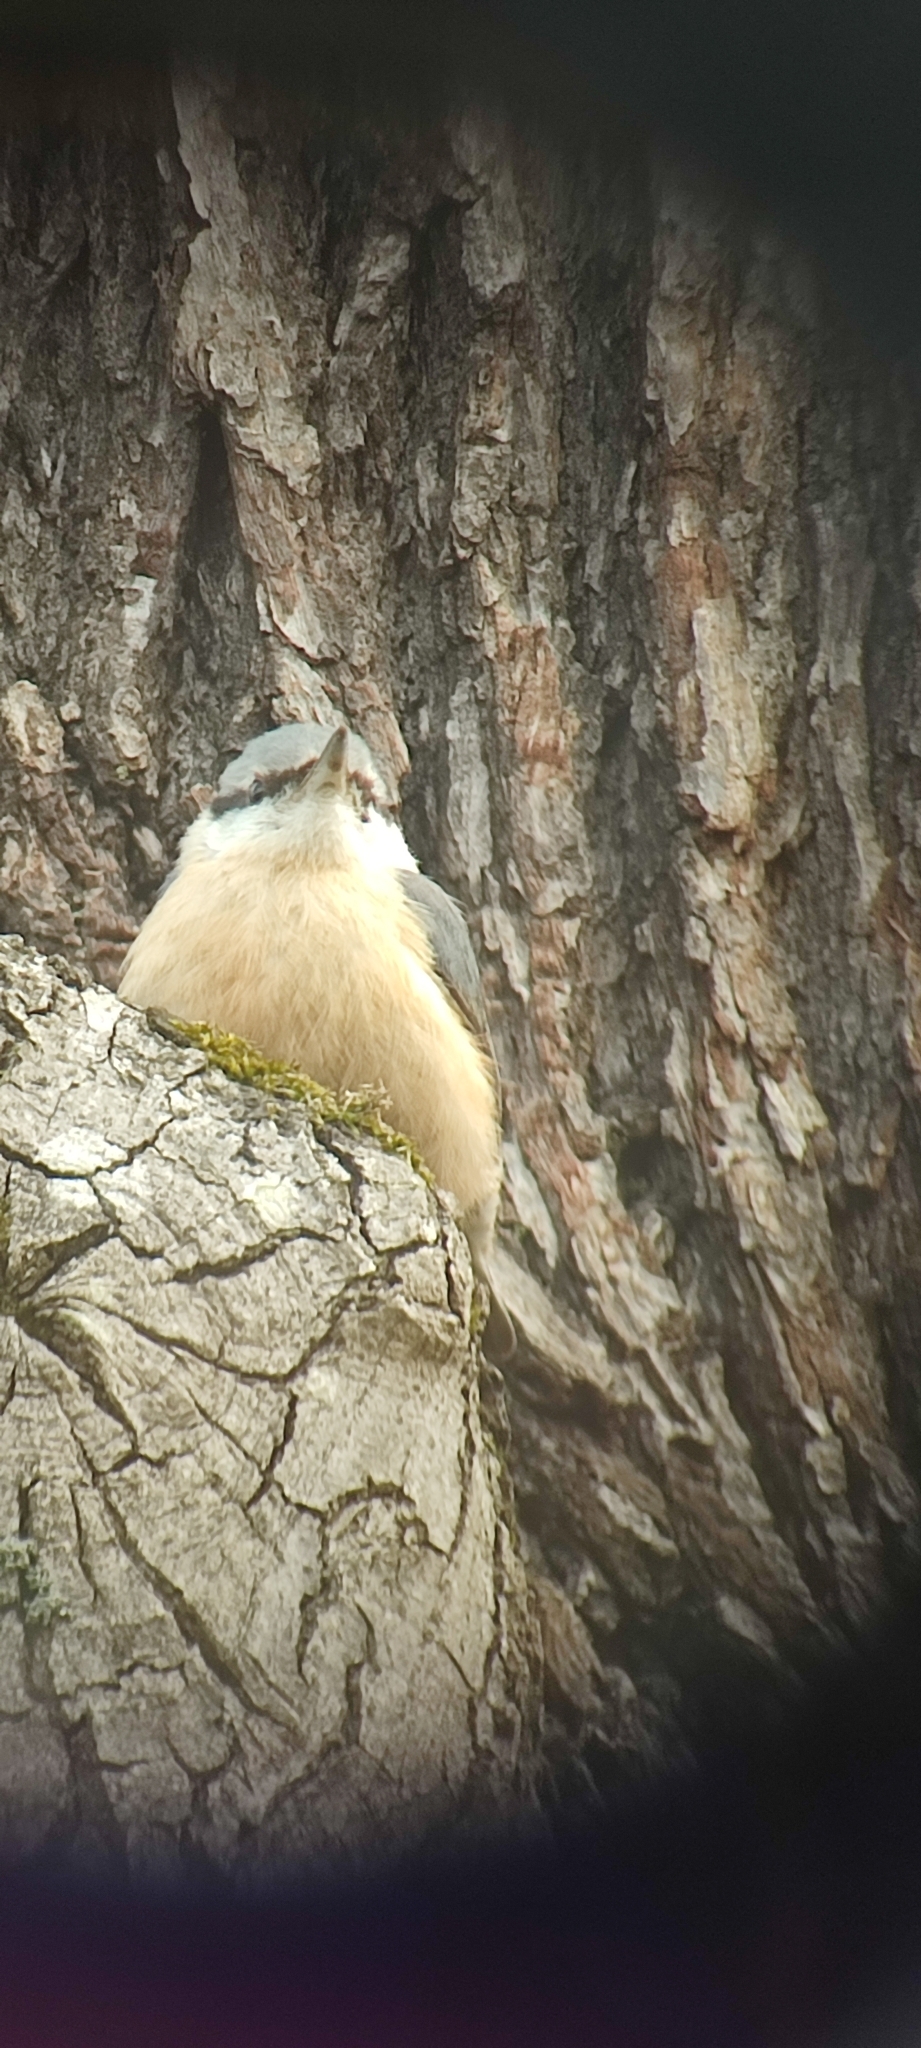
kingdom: Animalia
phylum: Chordata
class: Aves
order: Passeriformes
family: Sittidae
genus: Sitta
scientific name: Sitta europaea
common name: Eurasian nuthatch
